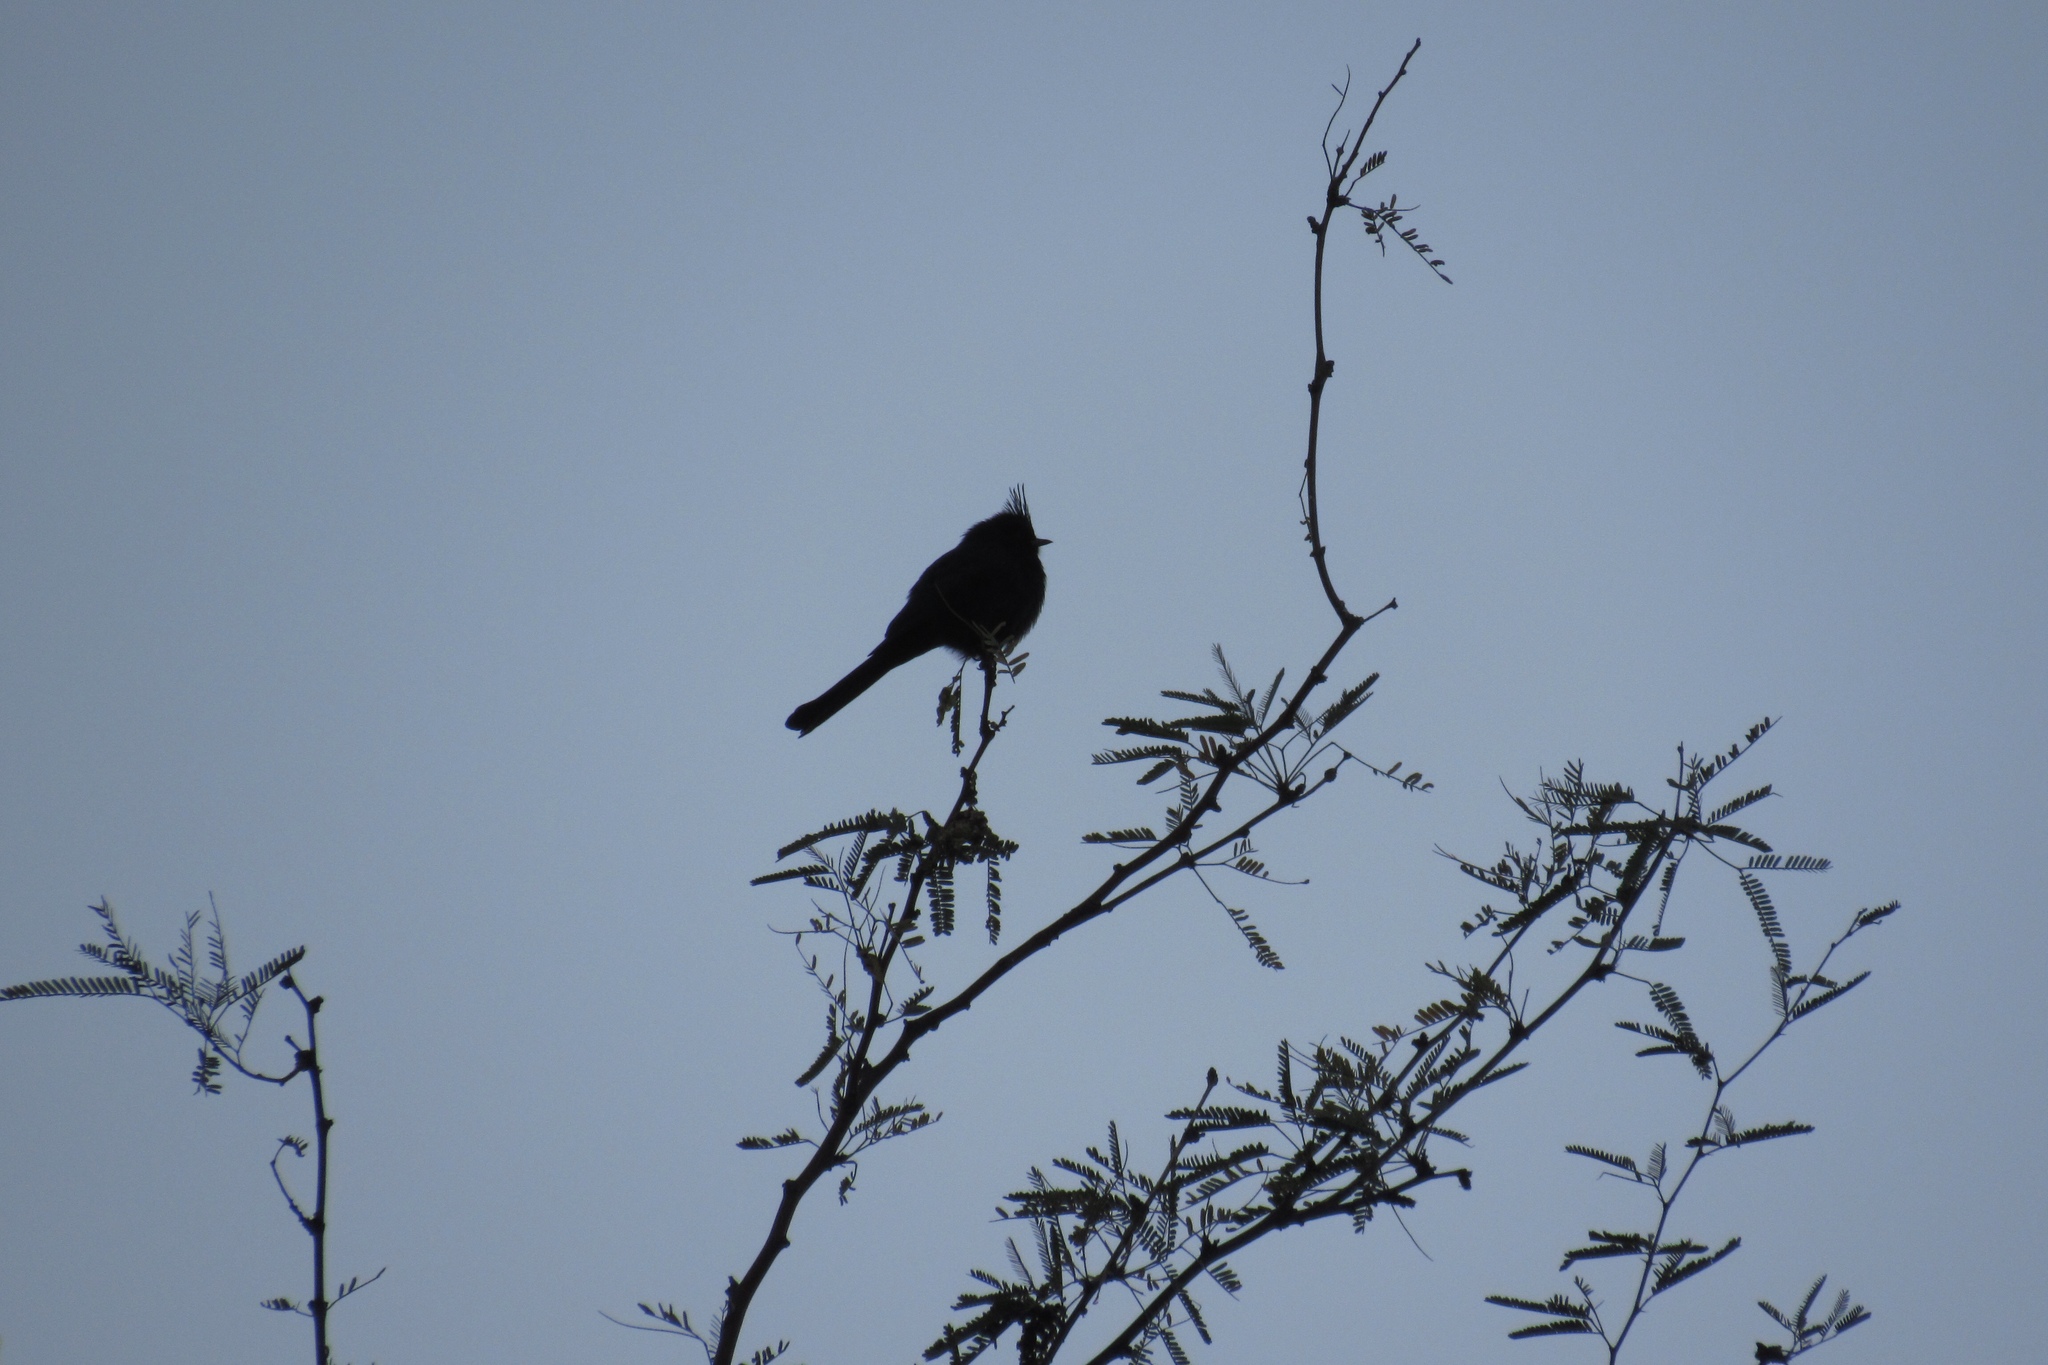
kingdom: Animalia
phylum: Chordata
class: Aves
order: Passeriformes
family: Ptilogonatidae
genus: Phainopepla
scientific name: Phainopepla nitens
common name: Phainopepla
